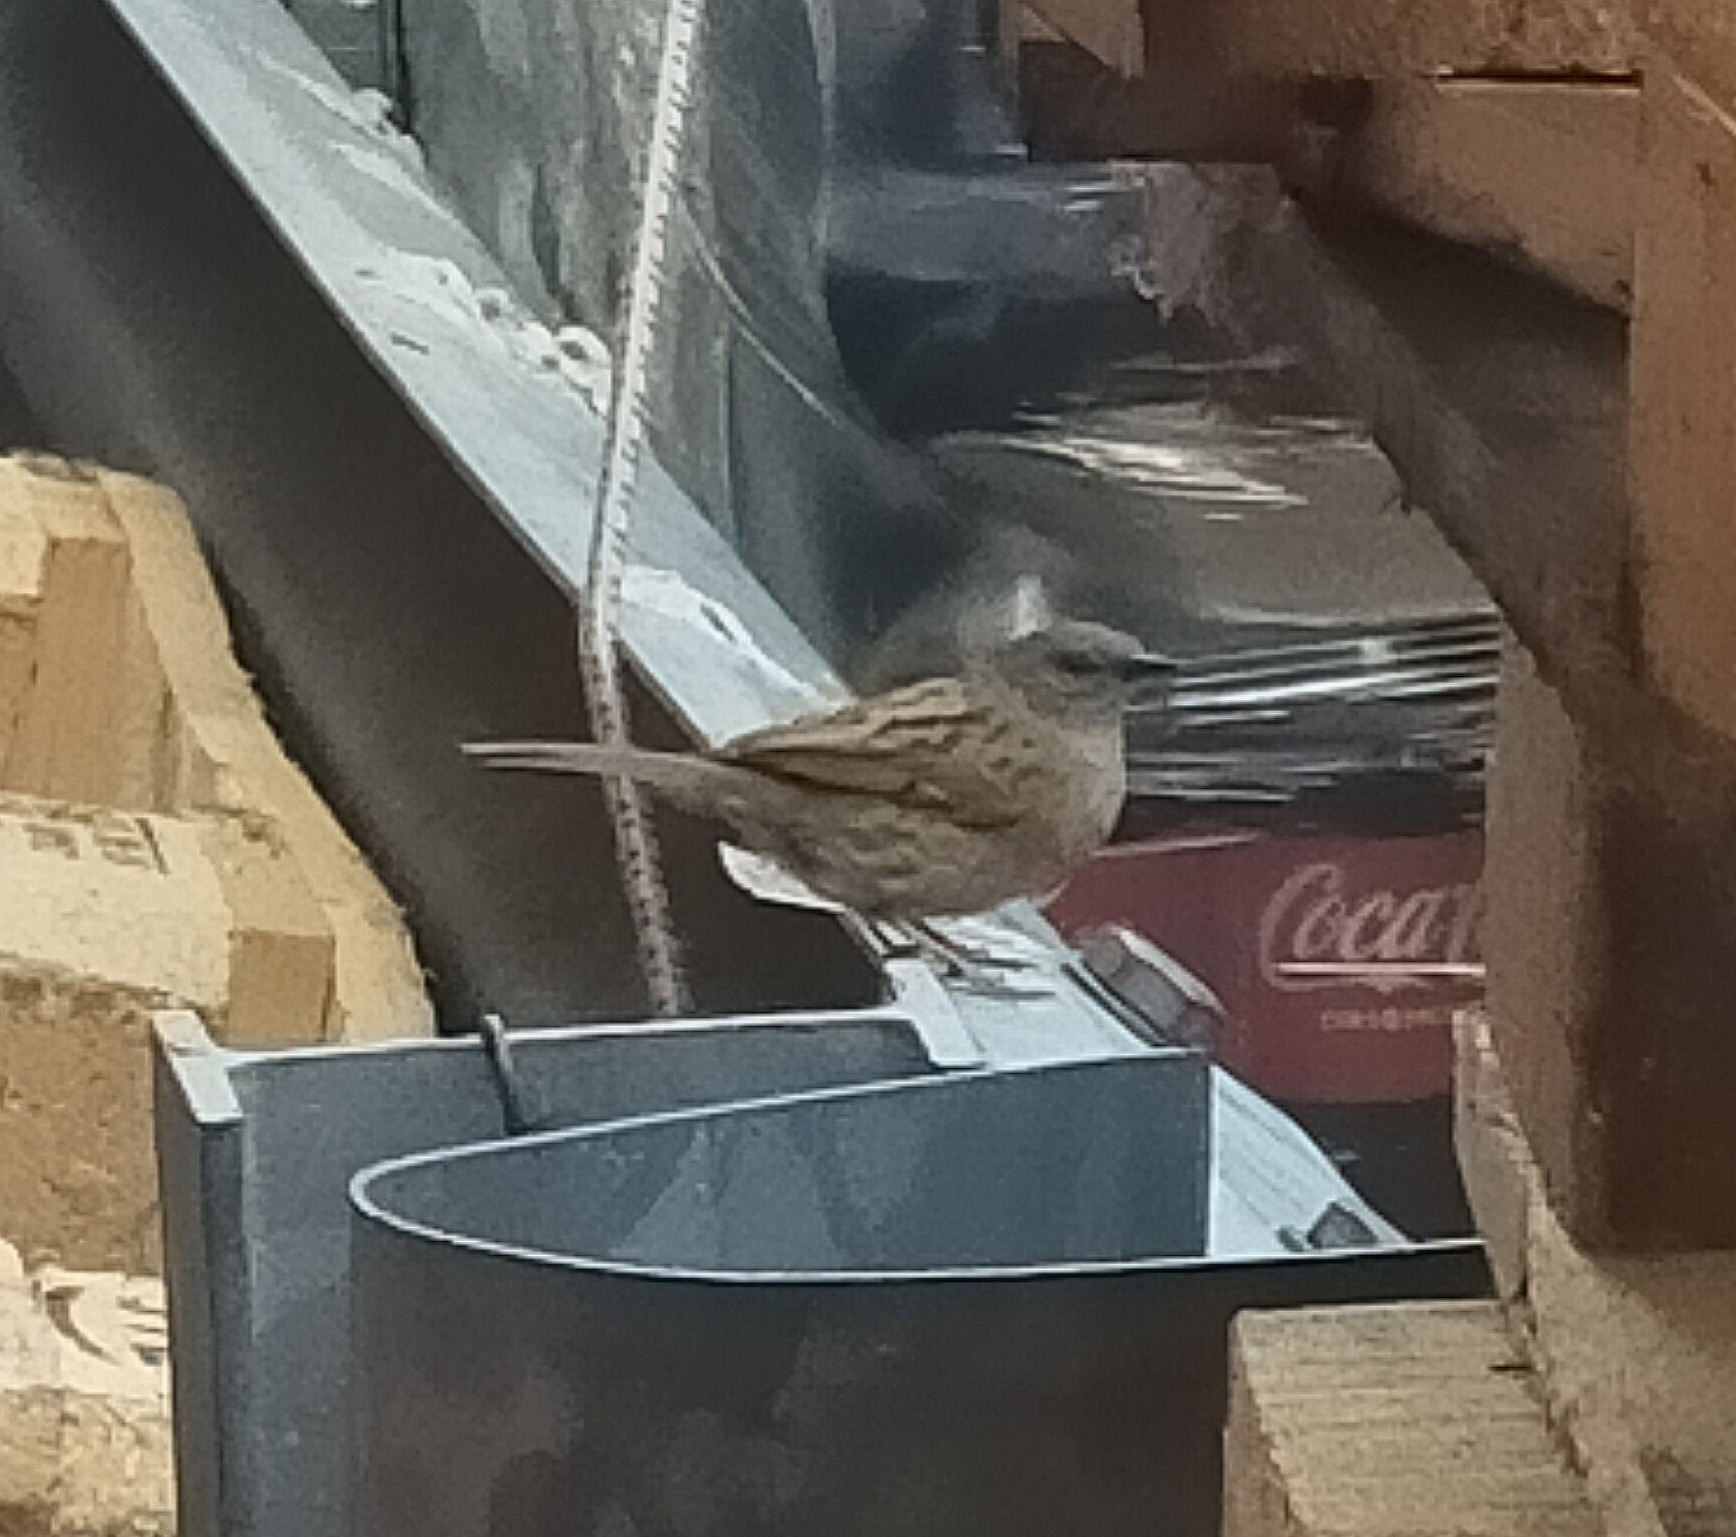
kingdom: Animalia
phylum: Chordata
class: Aves
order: Passeriformes
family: Prunellidae
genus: Prunella
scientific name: Prunella modularis
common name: Dunnock
